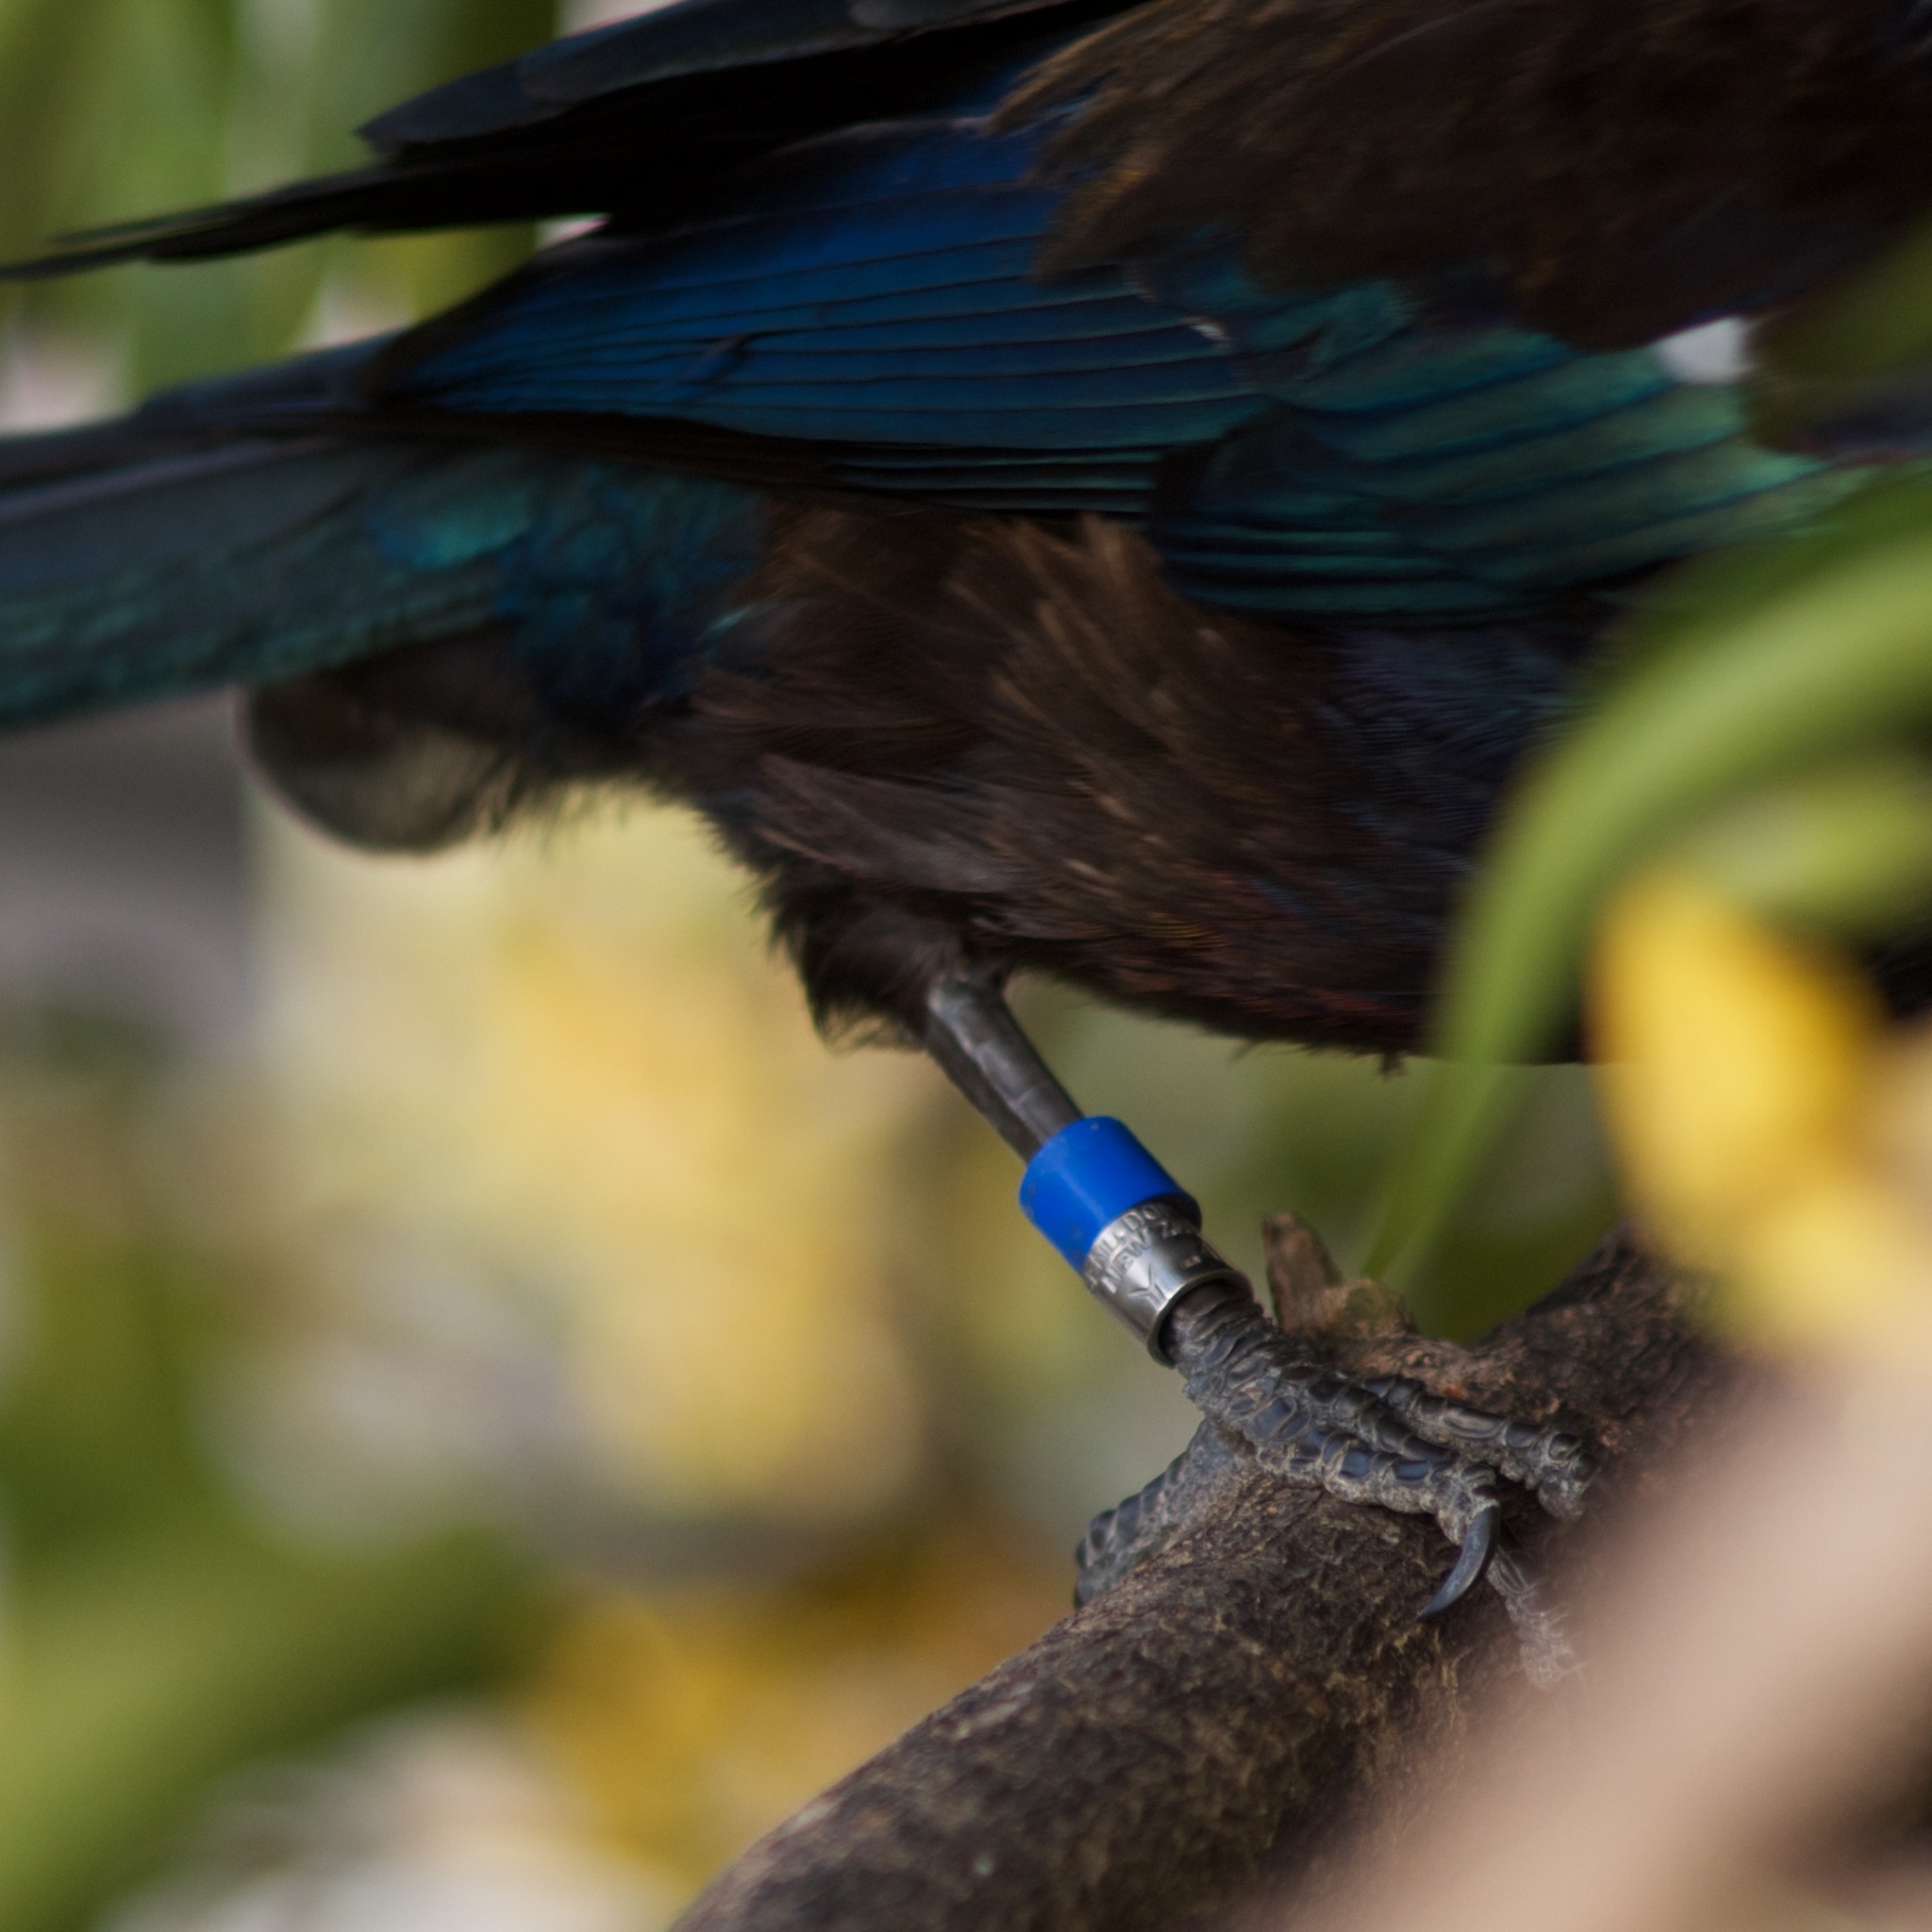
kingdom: Animalia
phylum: Chordata
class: Aves
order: Passeriformes
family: Meliphagidae
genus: Prosthemadera
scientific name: Prosthemadera novaeseelandiae
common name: Tui
